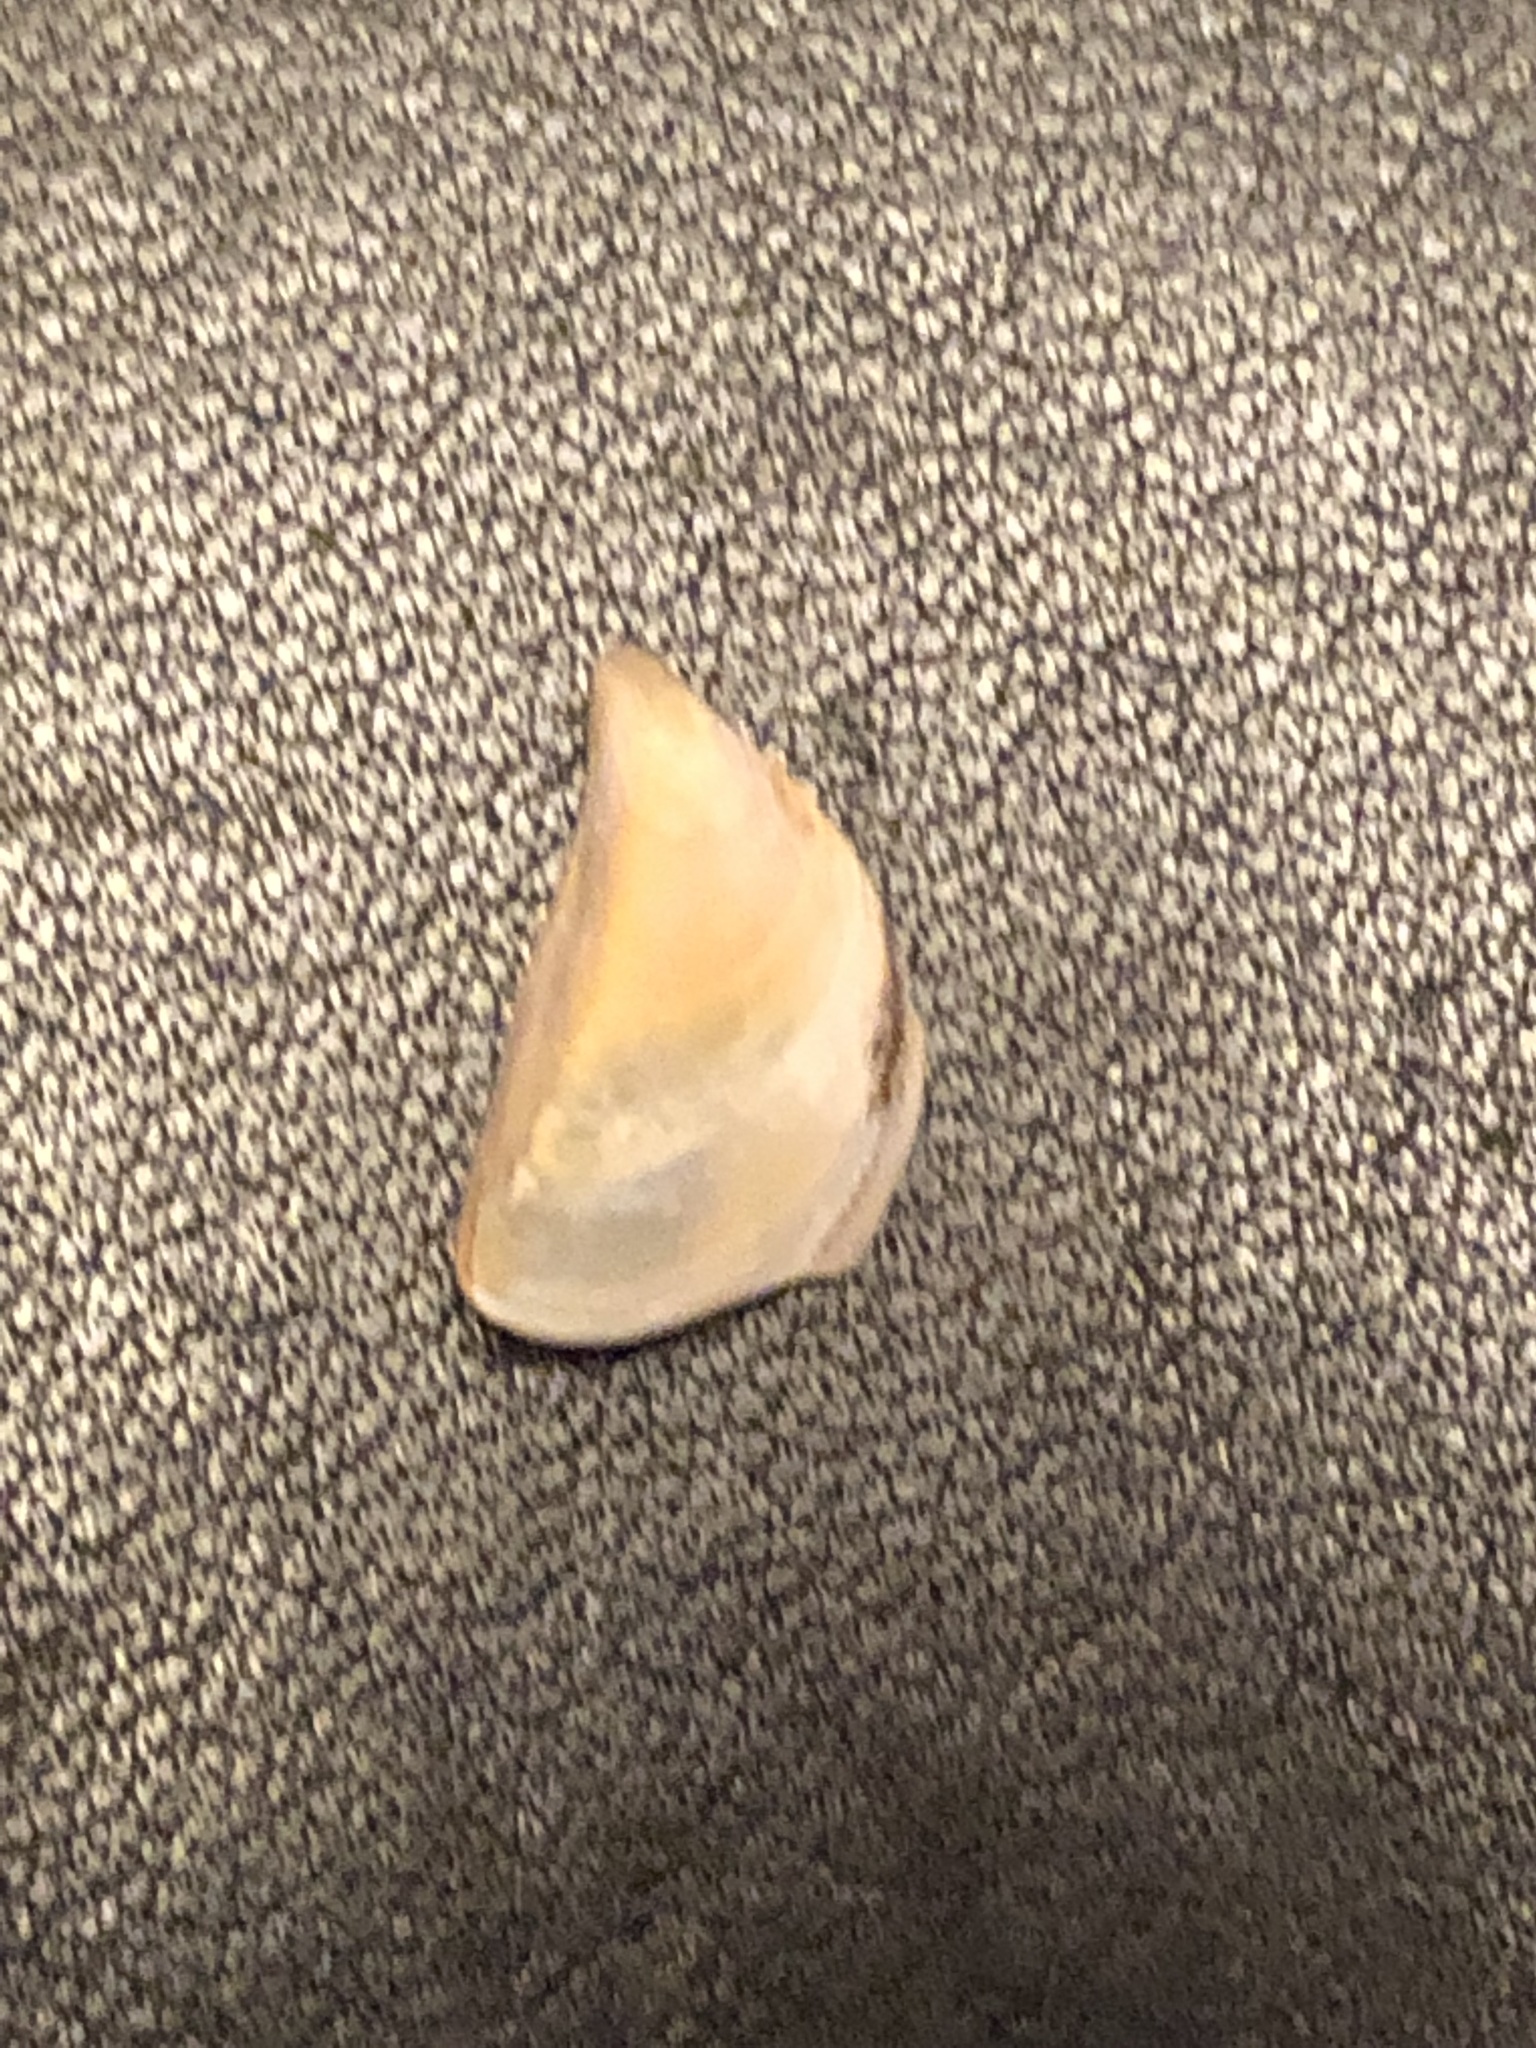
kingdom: Animalia
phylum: Mollusca
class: Bivalvia
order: Myida
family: Dreissenidae
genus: Dreissena
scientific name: Dreissena polymorpha
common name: Zebra mussel
